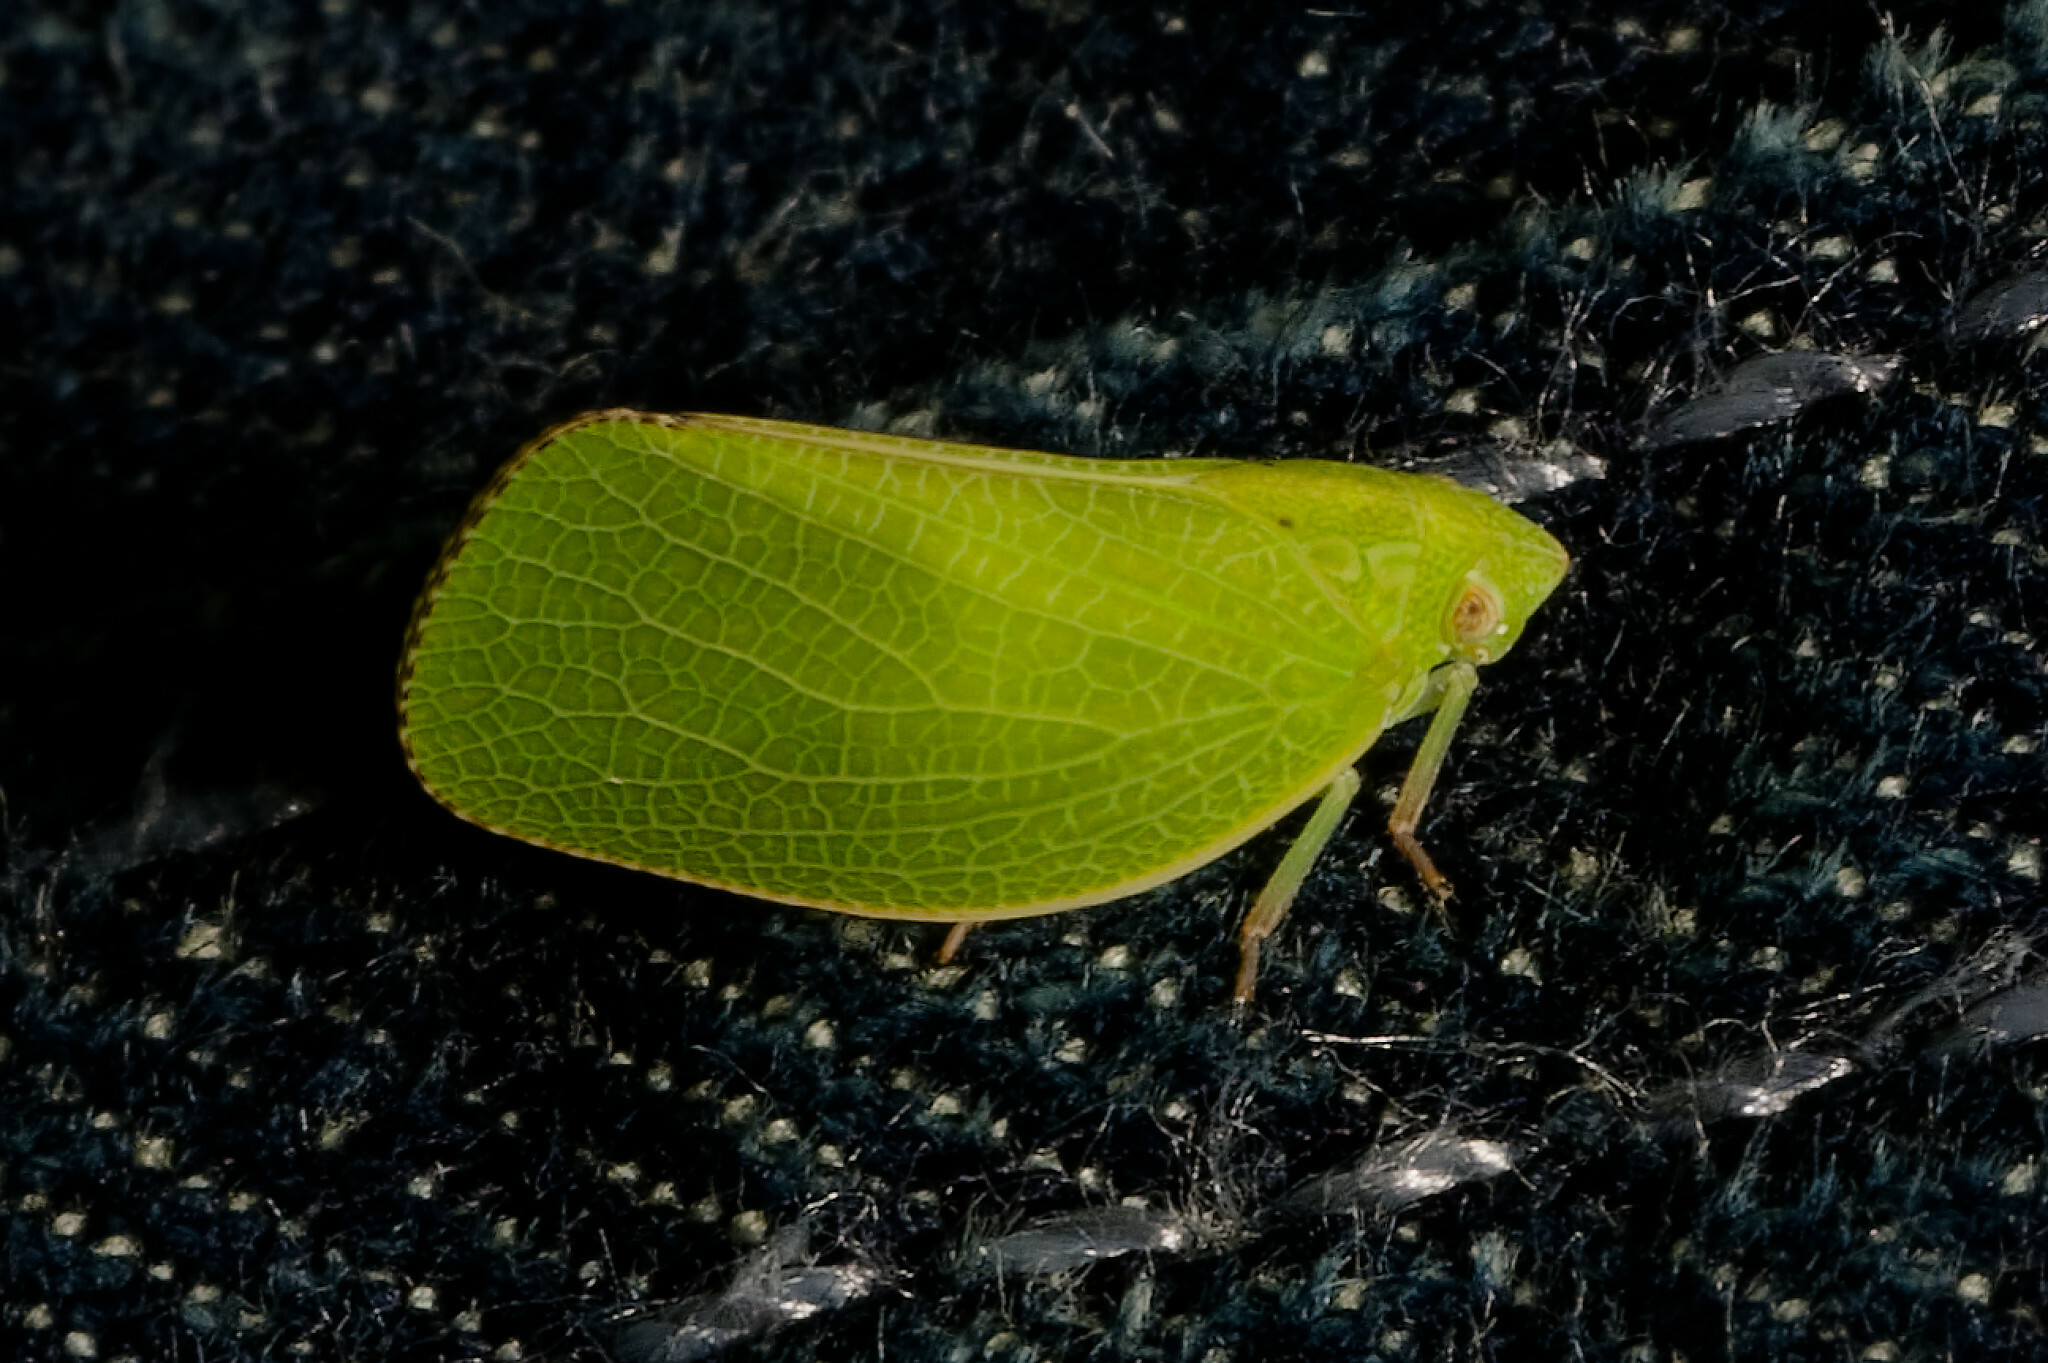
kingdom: Animalia
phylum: Arthropoda
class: Insecta
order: Hemiptera
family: Acanaloniidae
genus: Acanalonia
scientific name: Acanalonia conica
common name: Green cone-headed planthopper
